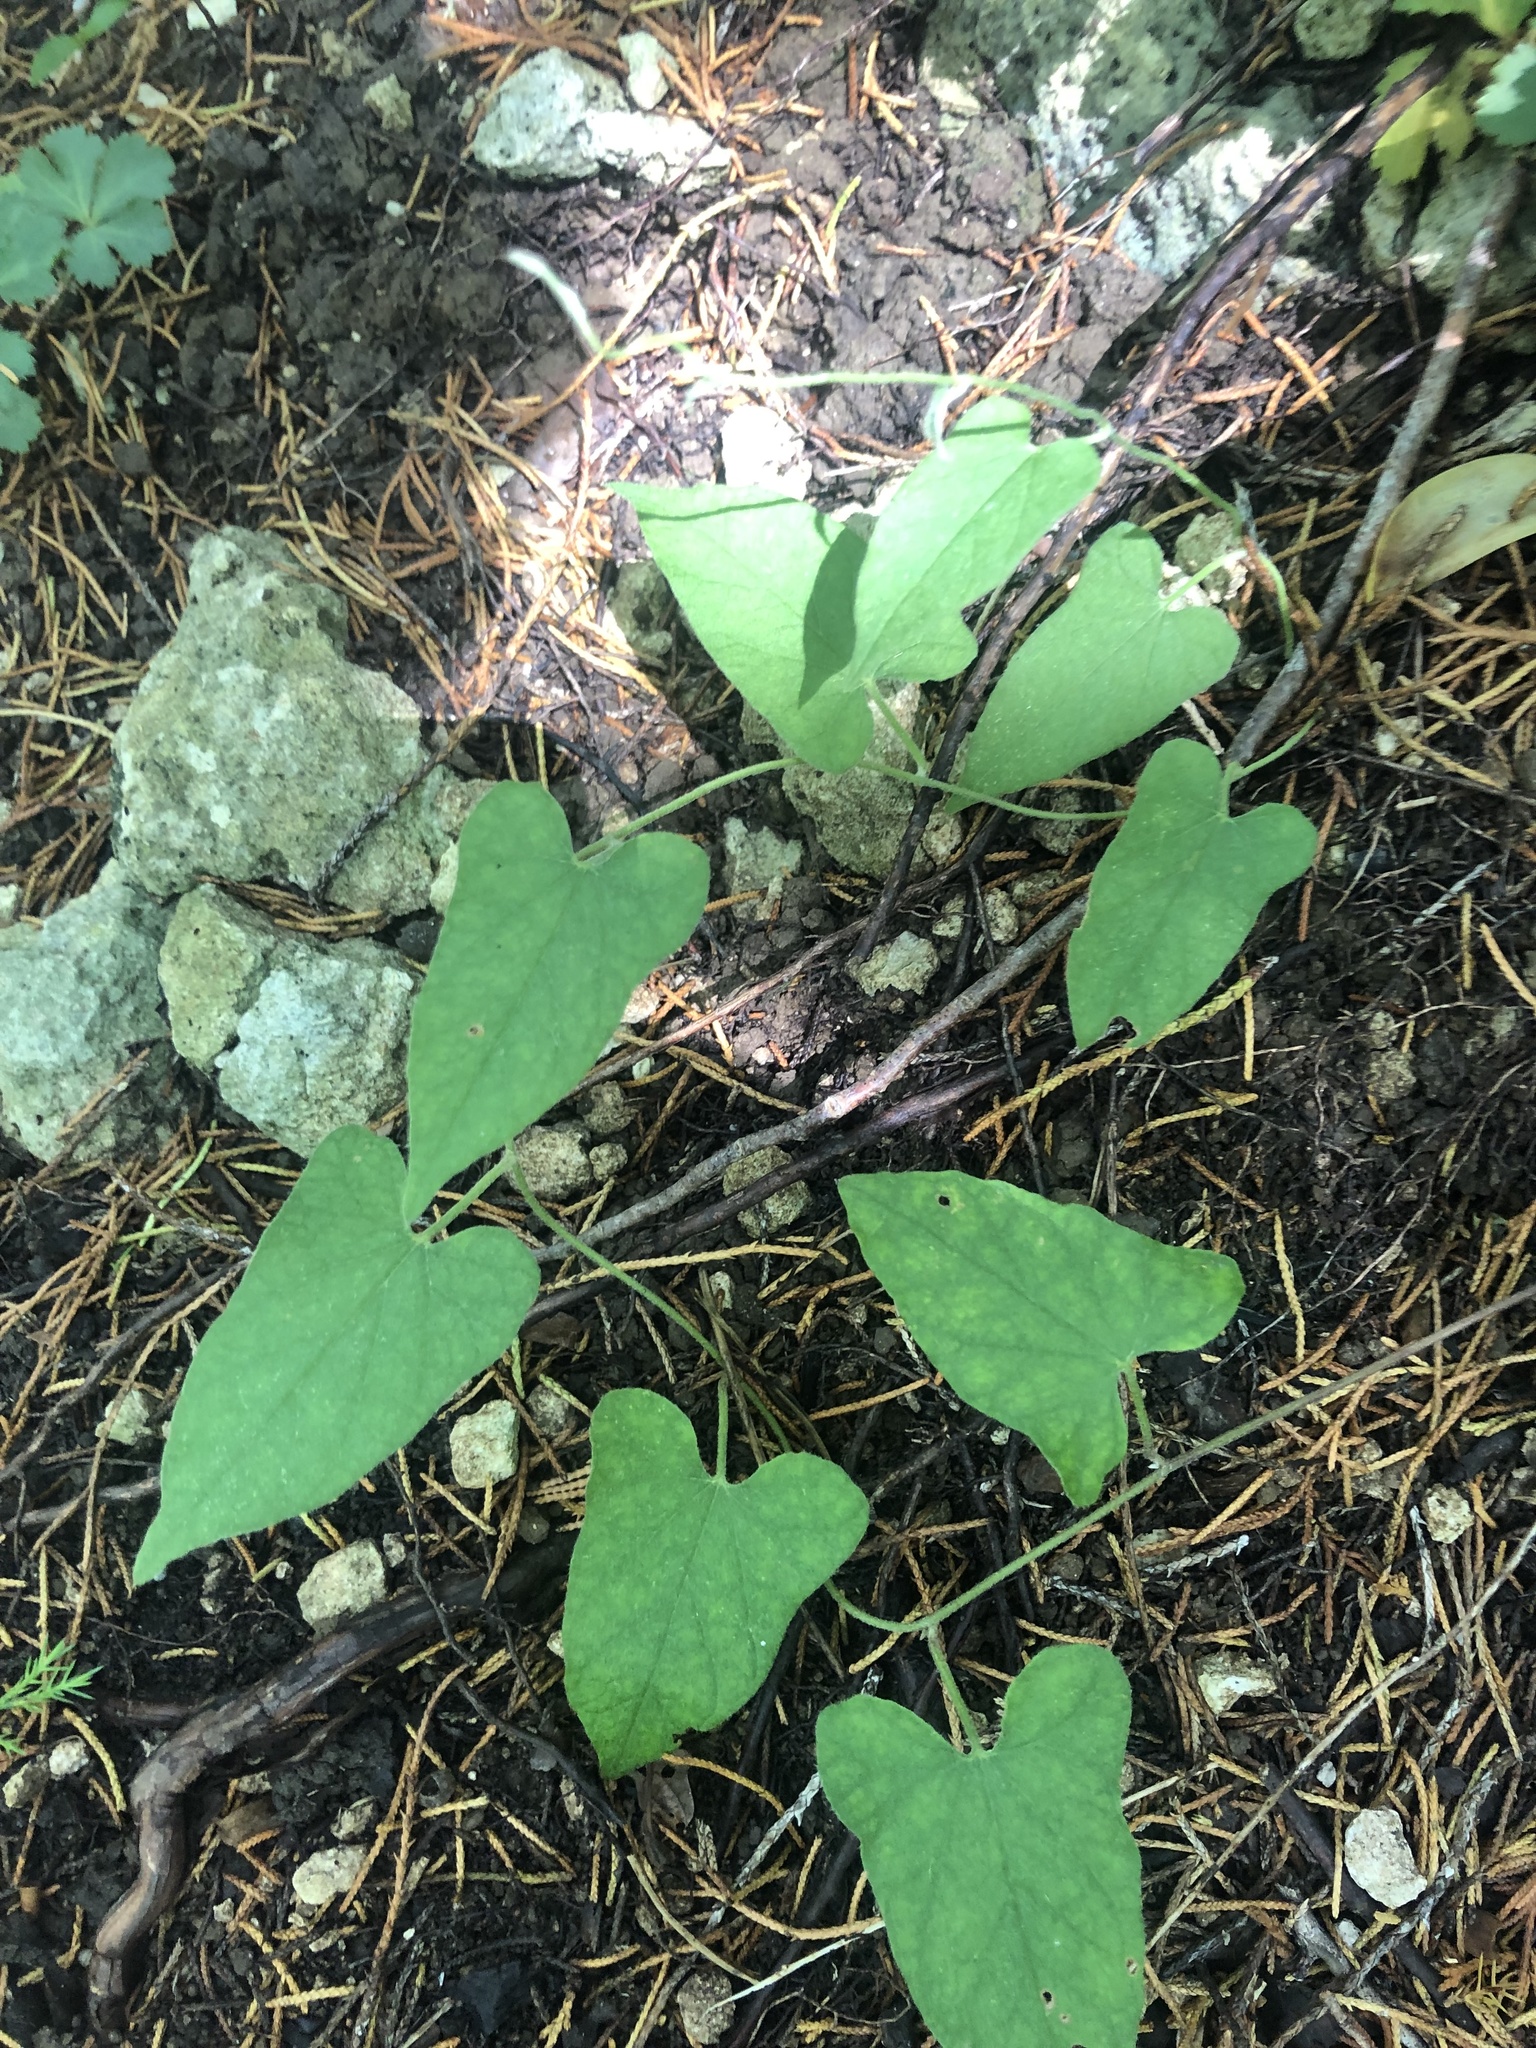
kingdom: Plantae
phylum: Tracheophyta
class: Magnoliopsida
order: Solanales
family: Convolvulaceae
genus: Calystegia
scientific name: Calystegia catesbeiana
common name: Catesby's false bindweed
